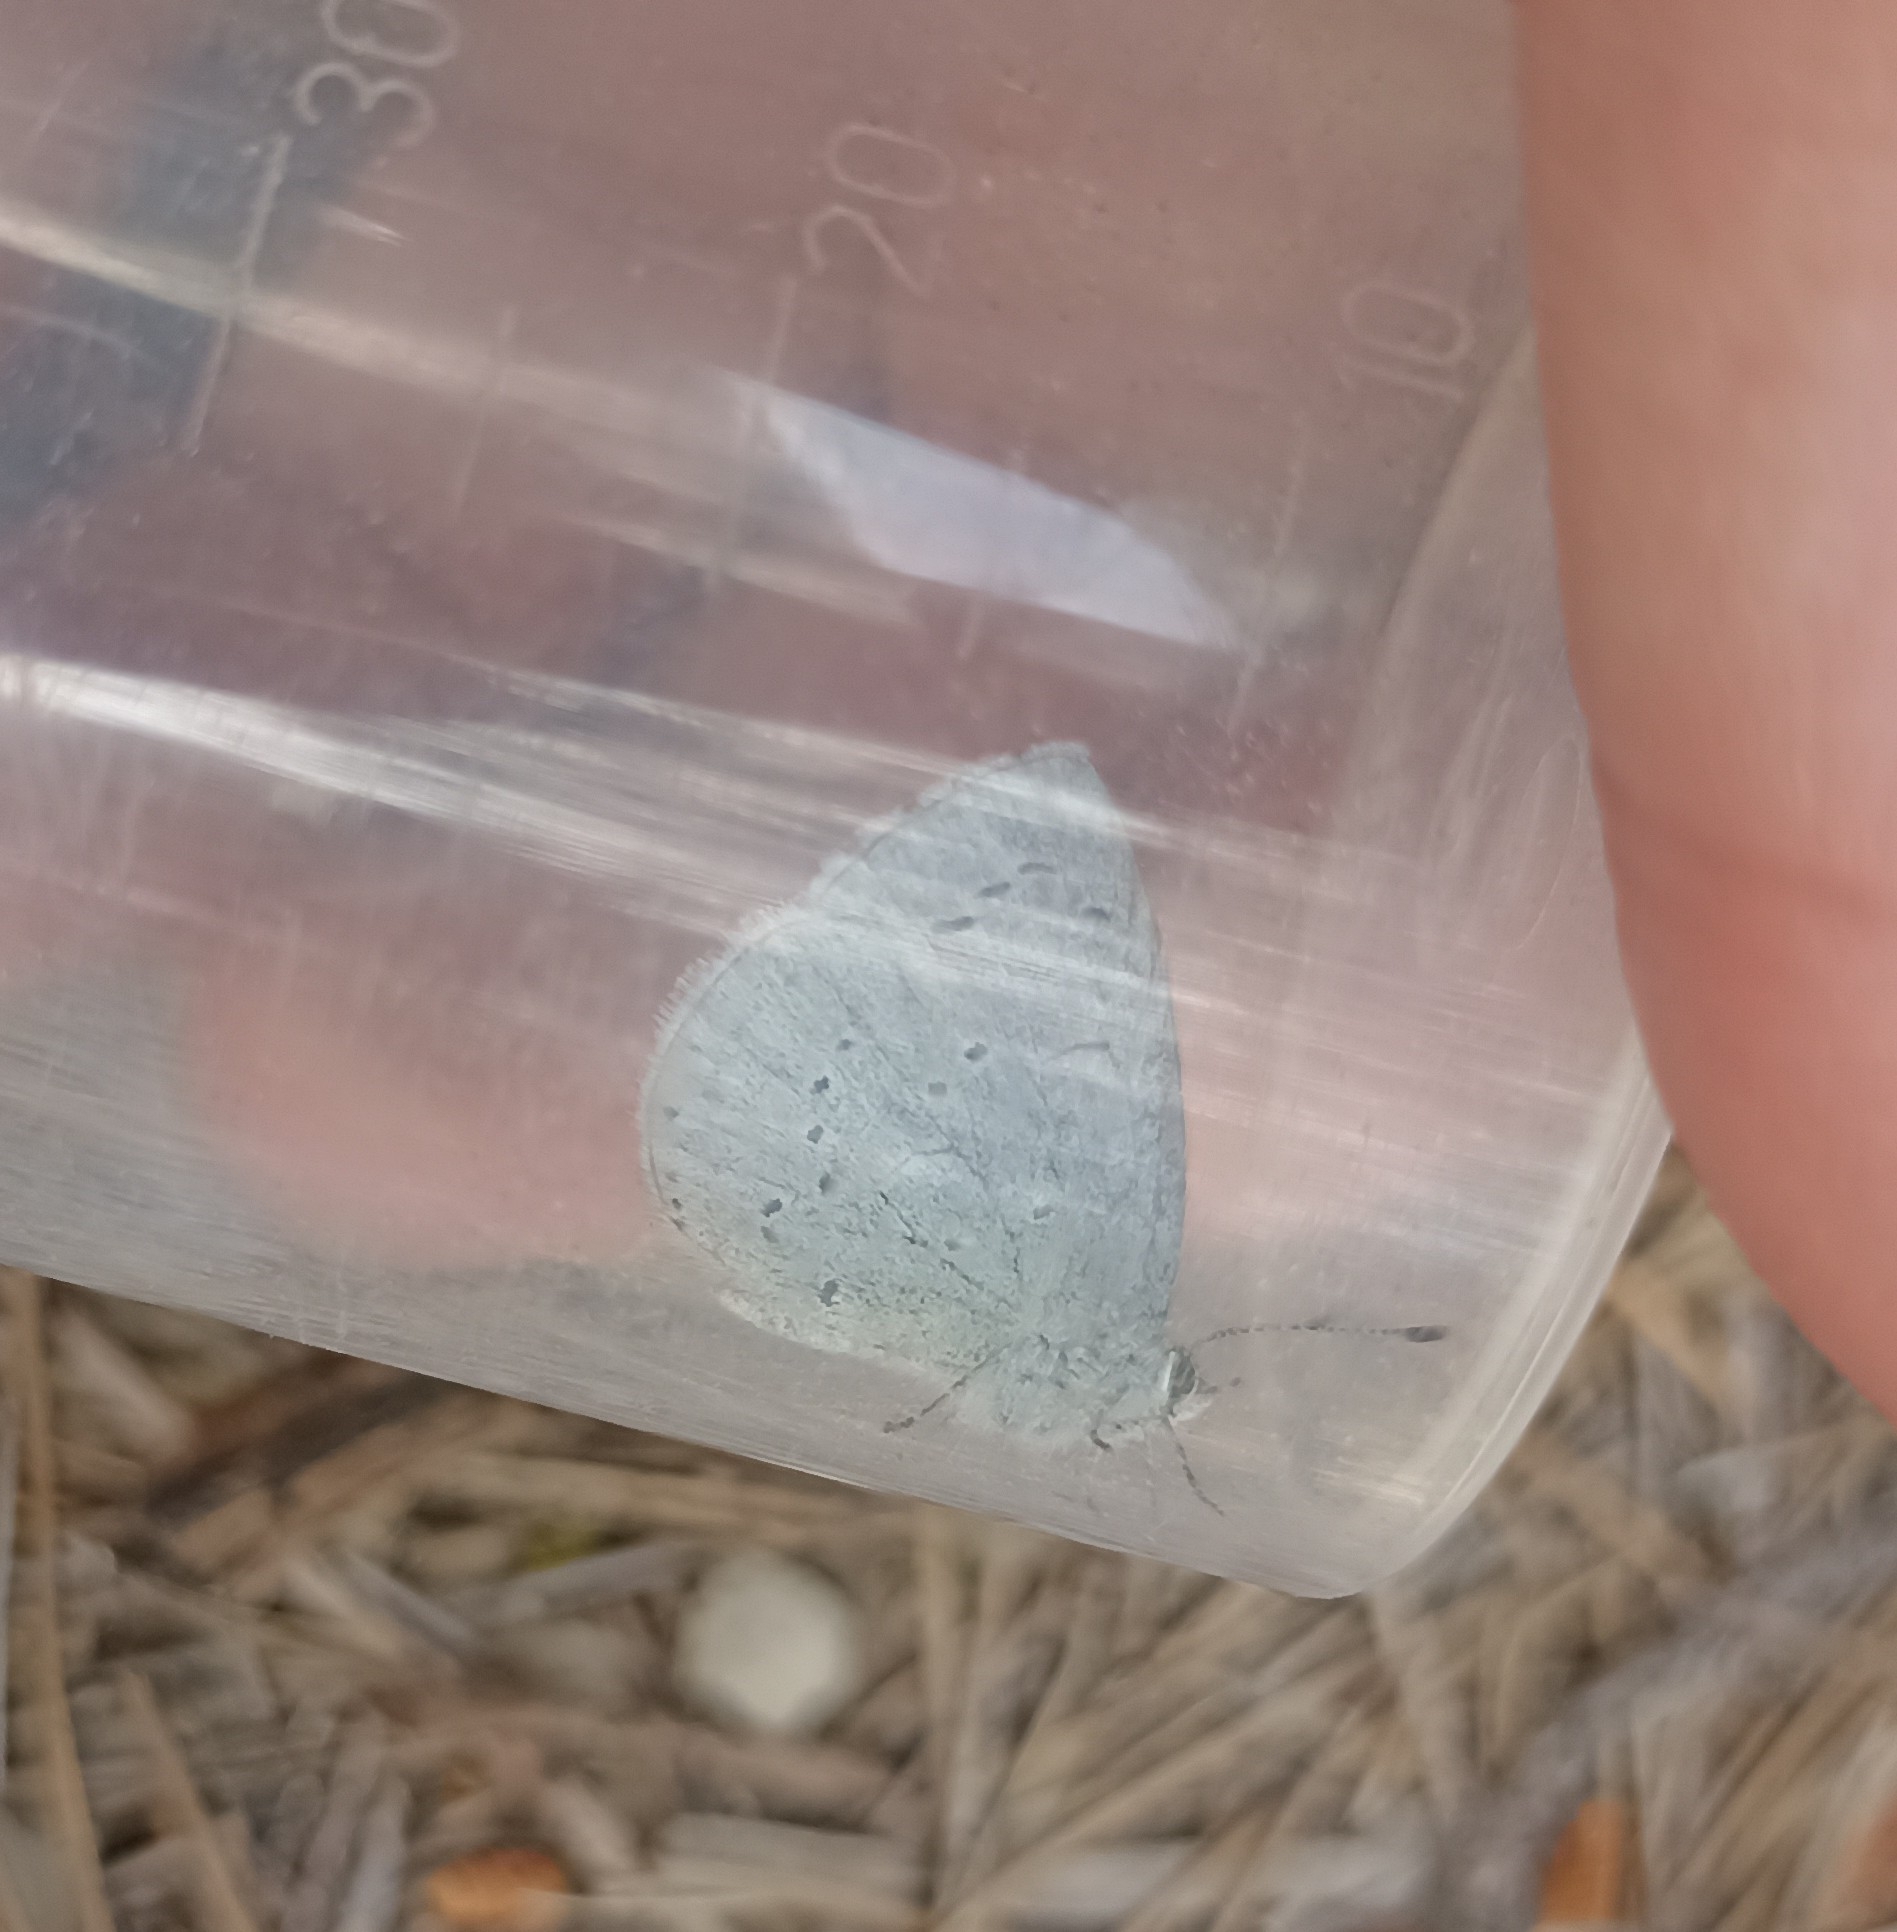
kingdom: Animalia
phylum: Arthropoda
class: Insecta
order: Lepidoptera
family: Lycaenidae
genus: Celastrina
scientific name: Celastrina argiolus
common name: Holly blue
